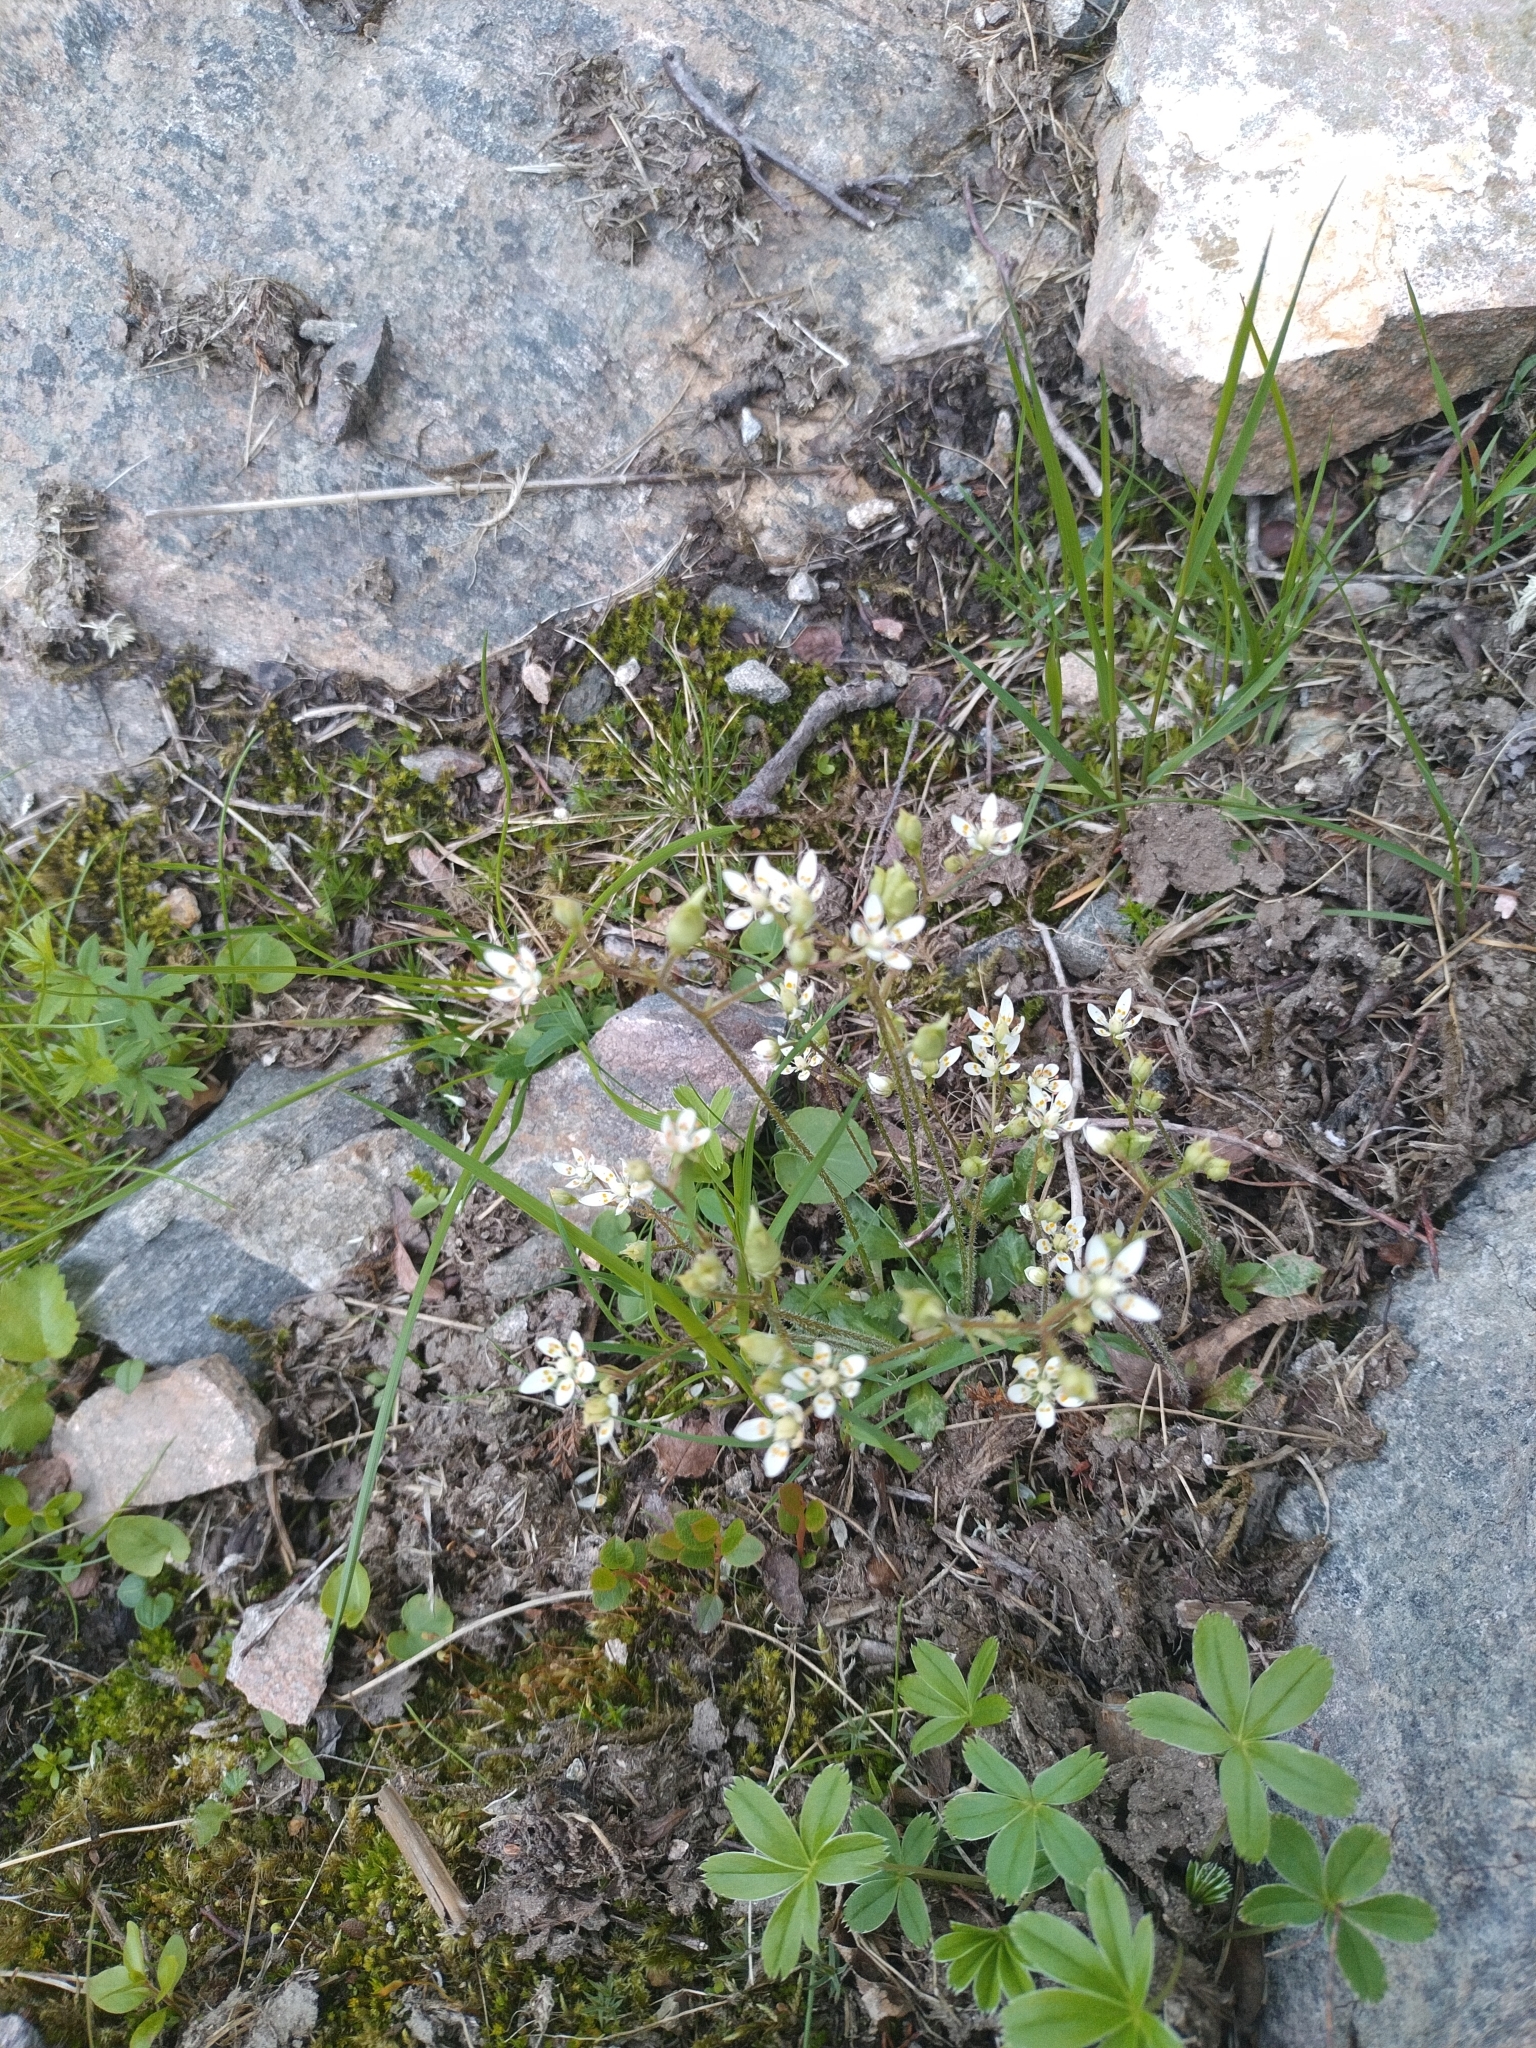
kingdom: Plantae
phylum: Tracheophyta
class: Magnoliopsida
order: Saxifragales
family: Saxifragaceae
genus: Micranthes
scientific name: Micranthes stellaris
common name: Starry saxifrage
